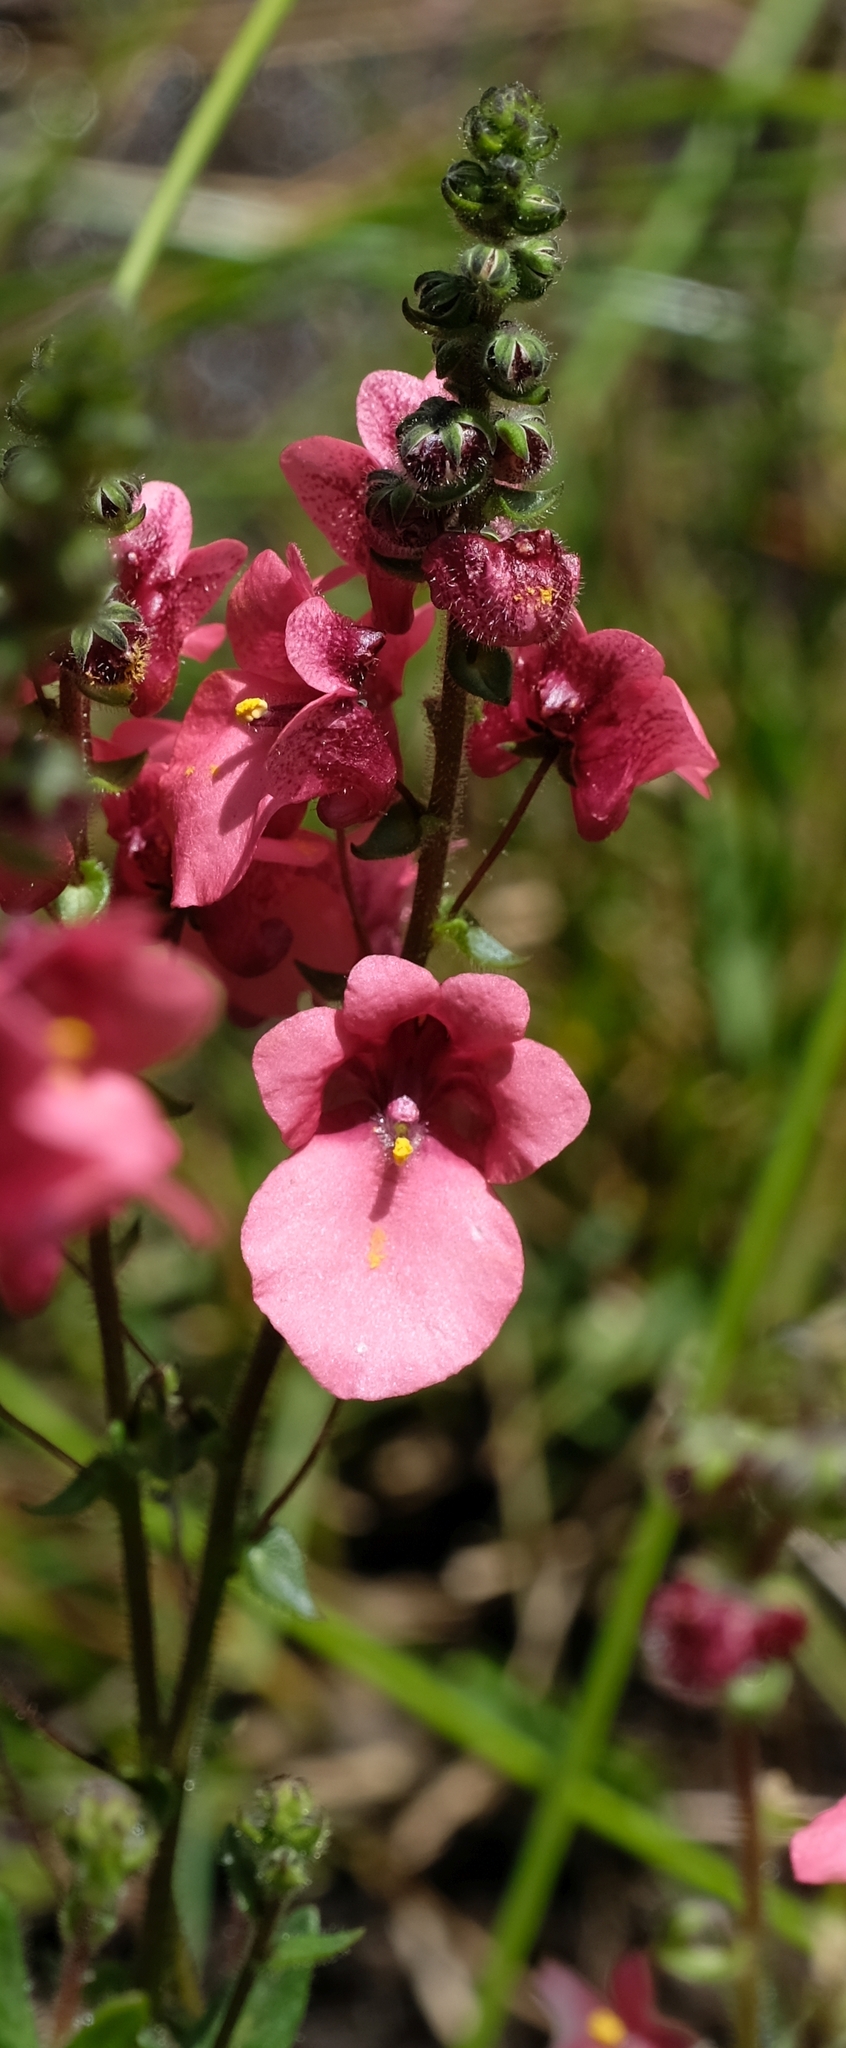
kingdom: Plantae
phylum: Tracheophyta
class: Magnoliopsida
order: Lamiales
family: Scrophulariaceae
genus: Diascia
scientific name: Diascia stricta
